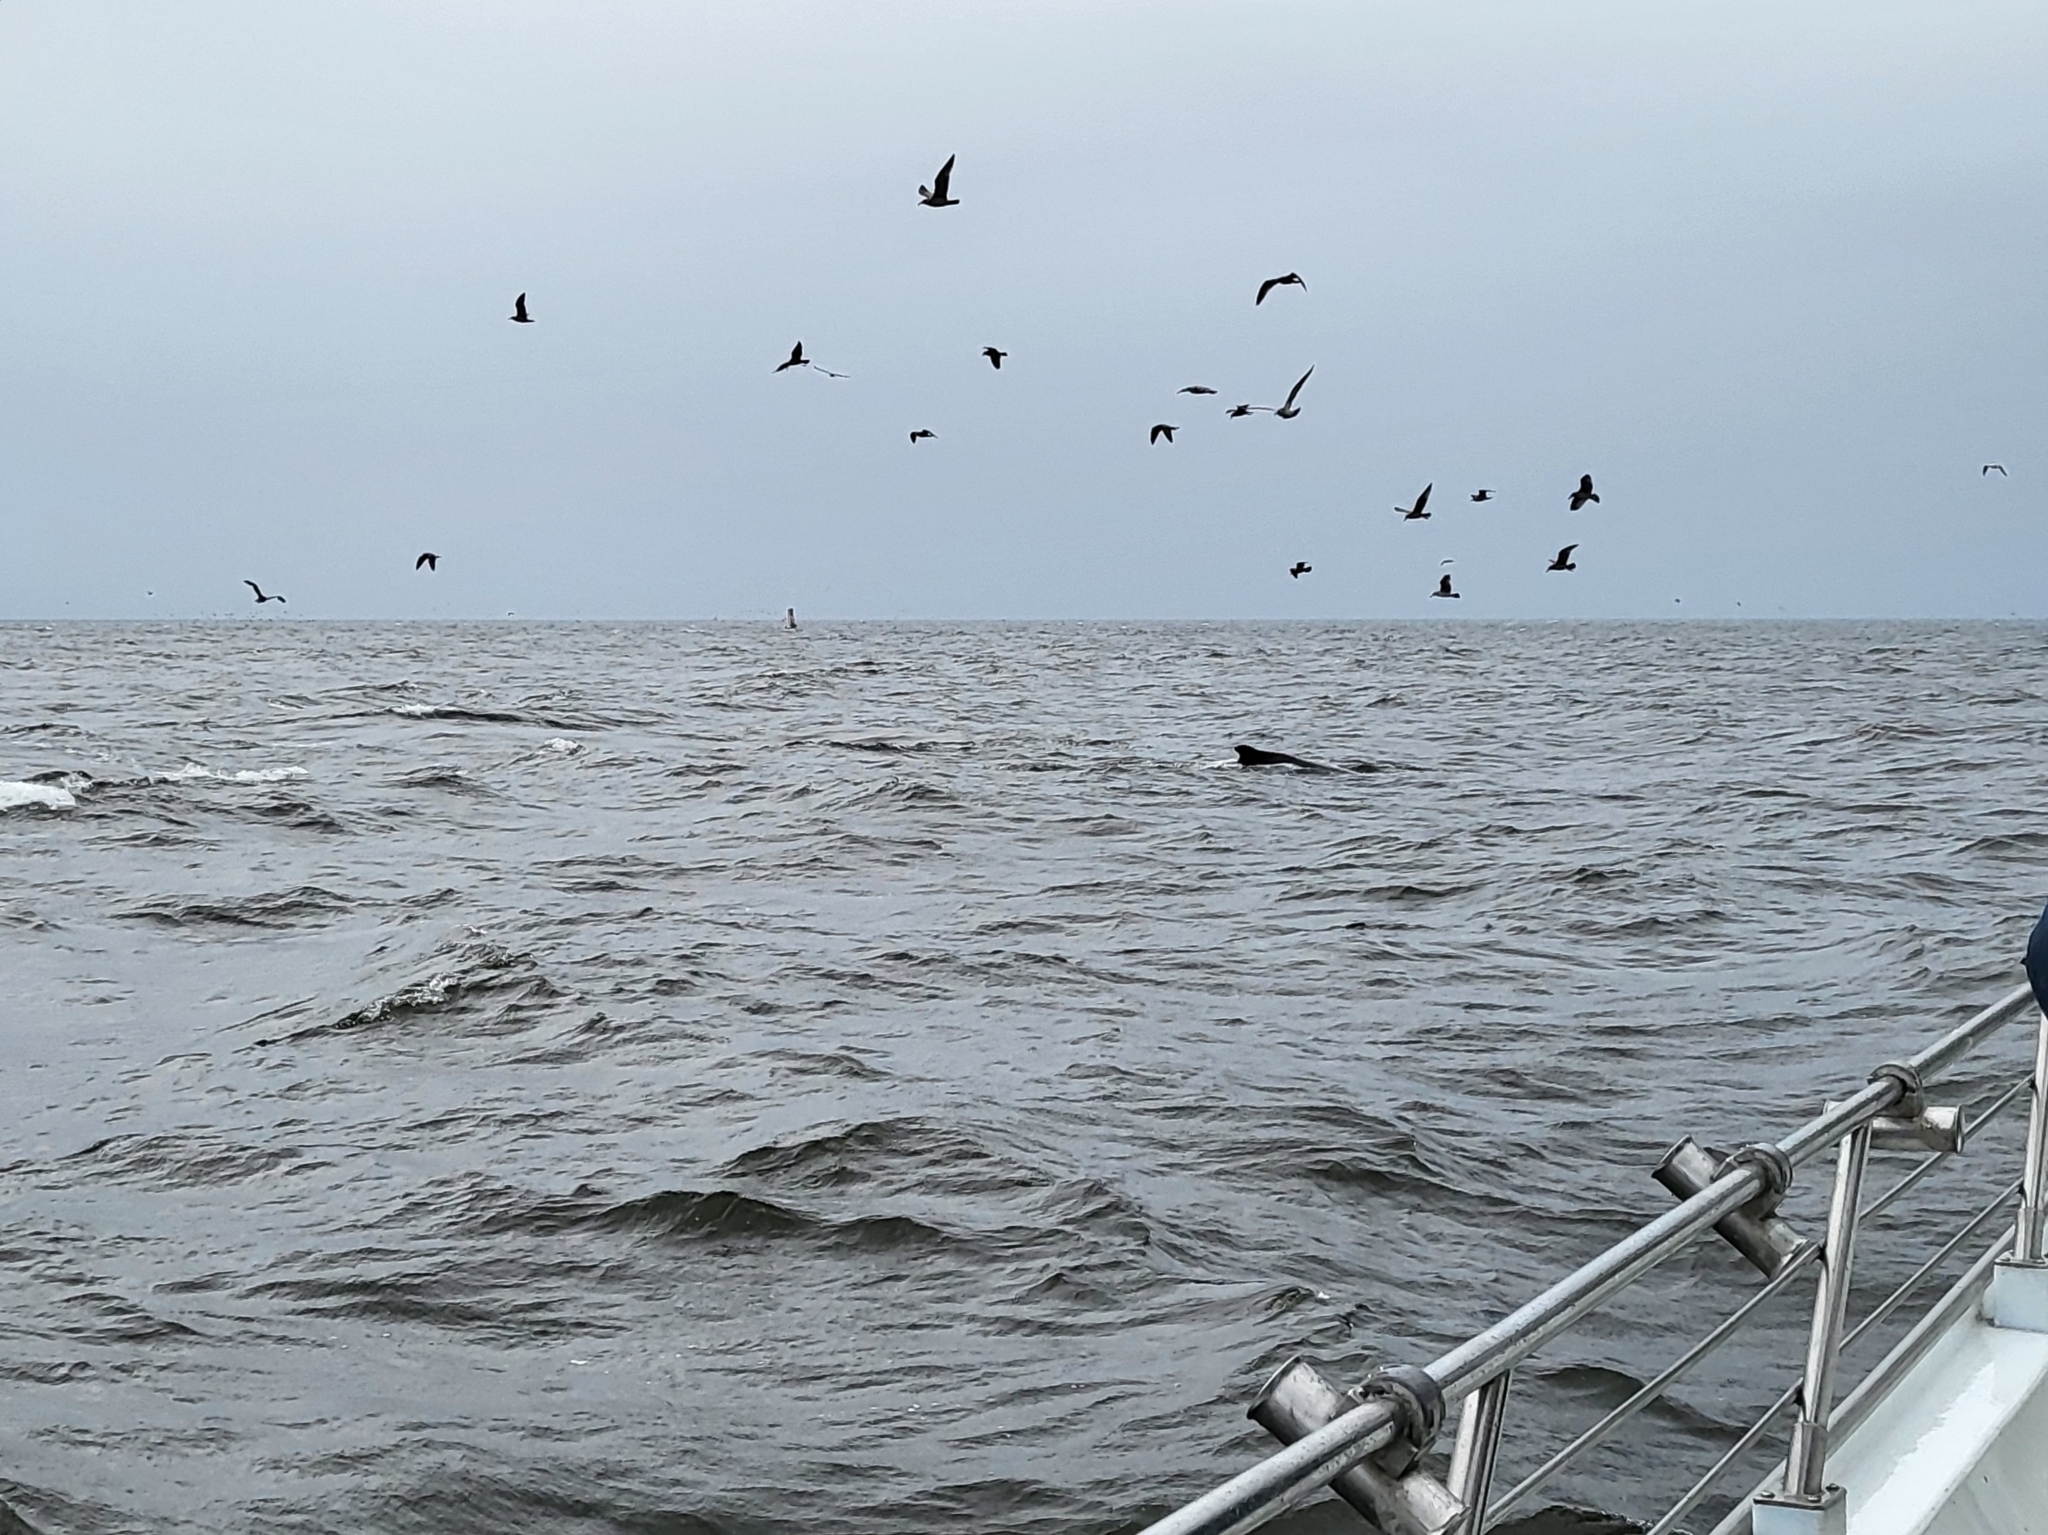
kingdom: Animalia
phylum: Chordata
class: Mammalia
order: Cetacea
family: Balaenopteridae
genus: Megaptera
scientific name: Megaptera novaeangliae
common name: Humpback whale
